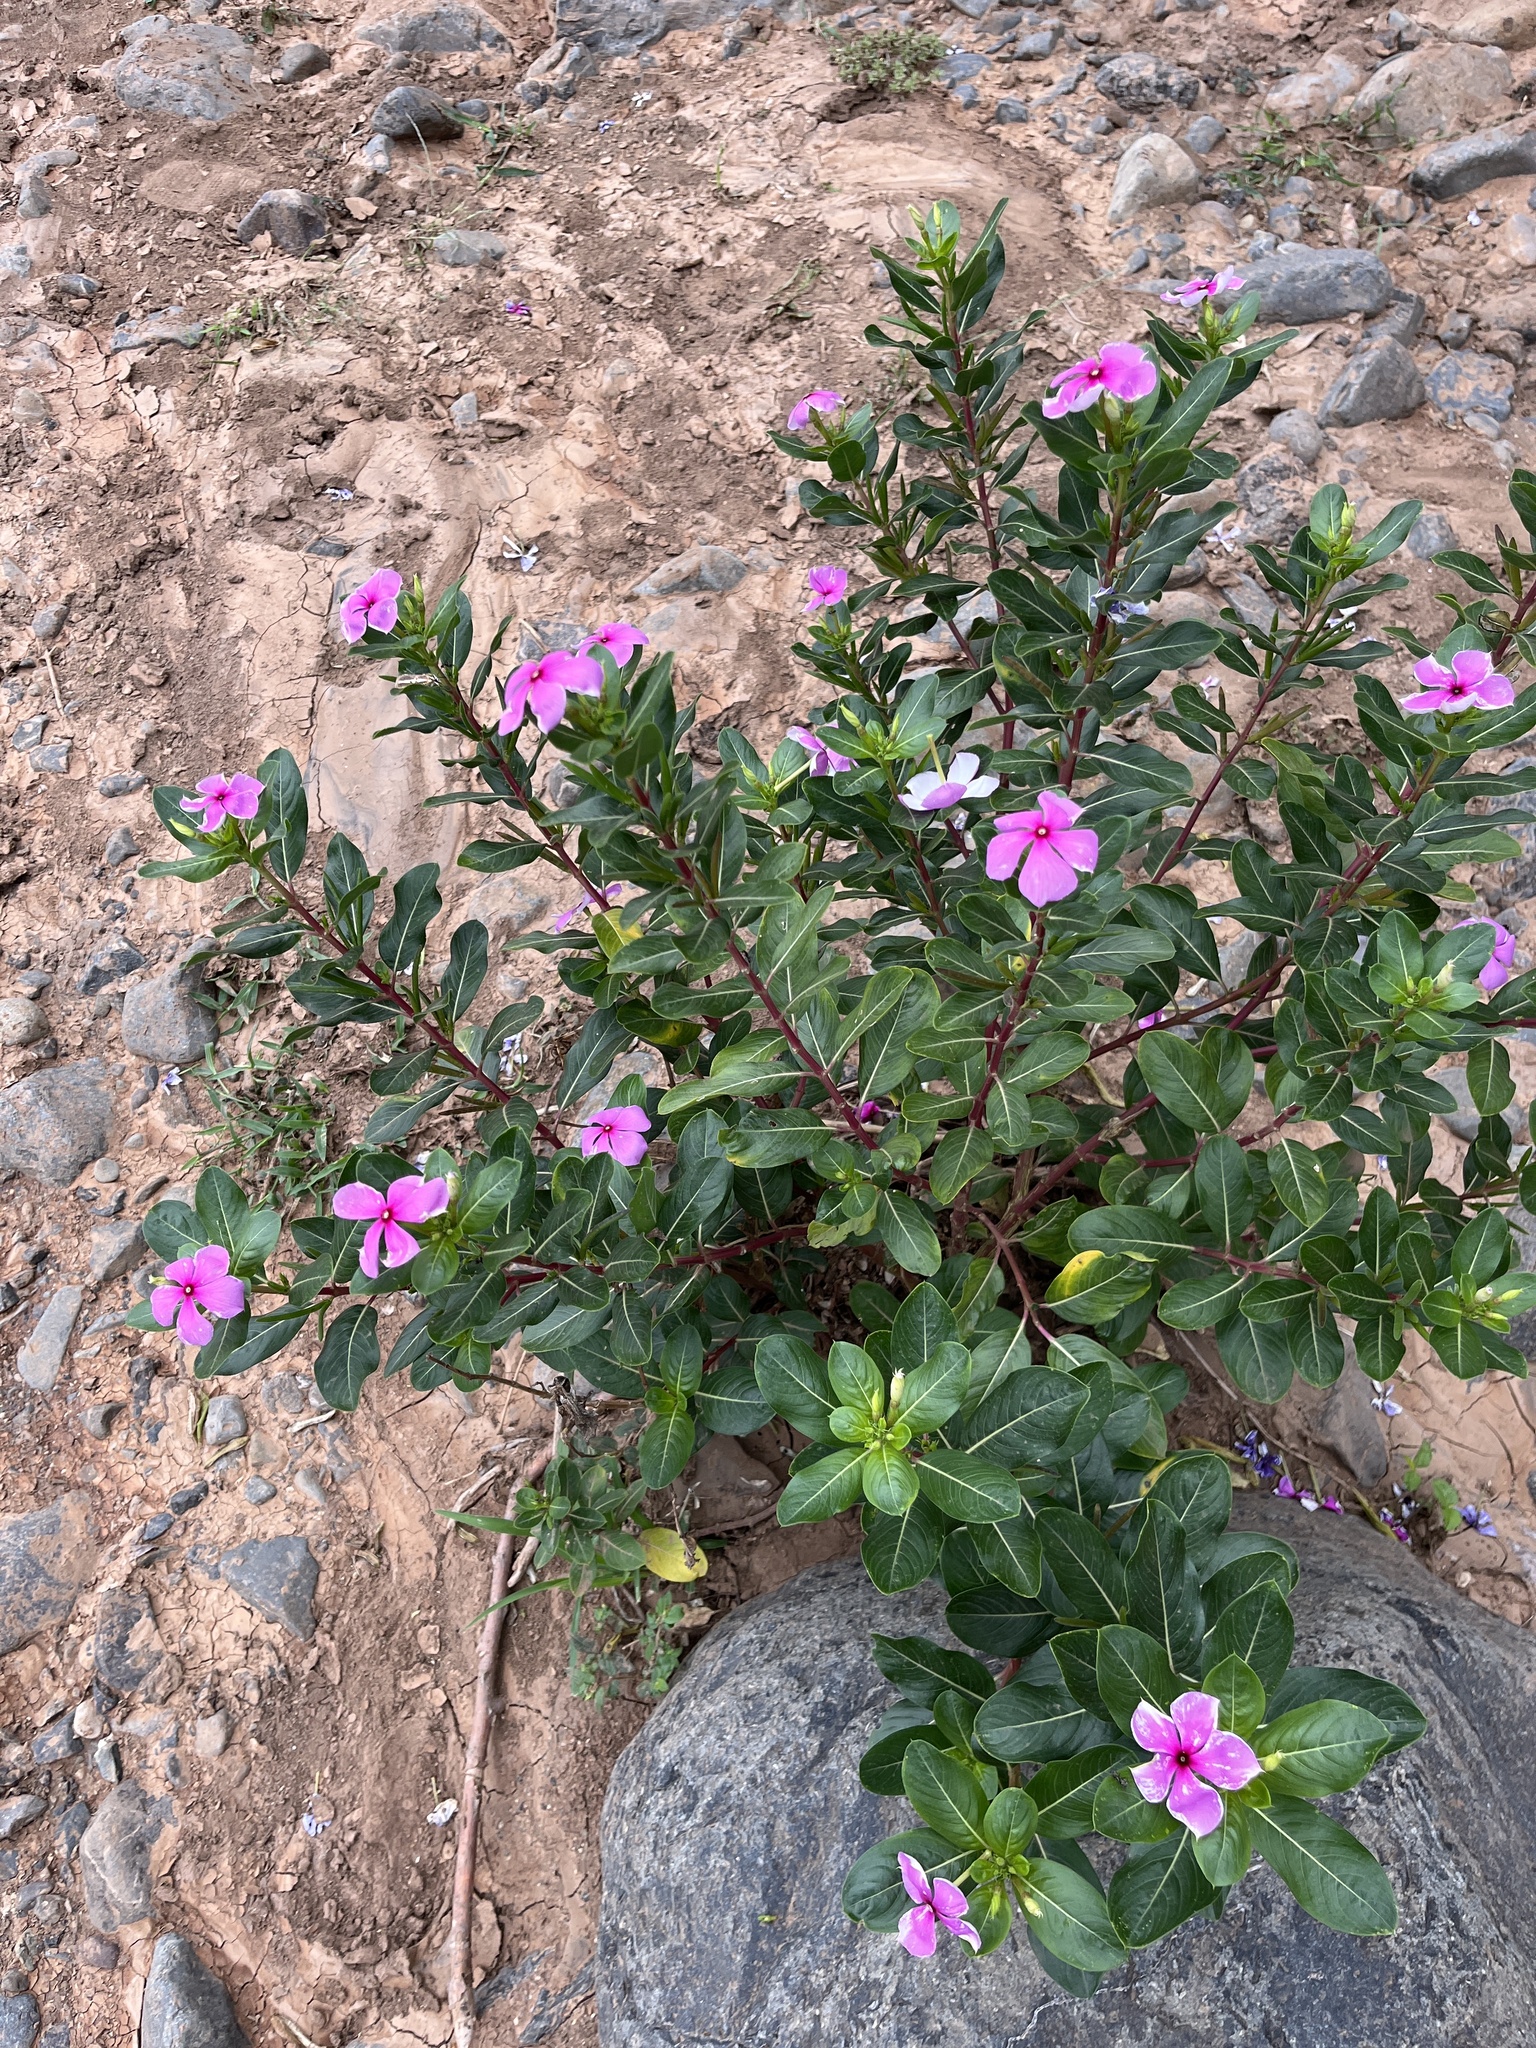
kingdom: Plantae
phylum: Tracheophyta
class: Magnoliopsida
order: Gentianales
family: Apocynaceae
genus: Catharanthus
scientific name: Catharanthus roseus
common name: Madagascar periwinkle
